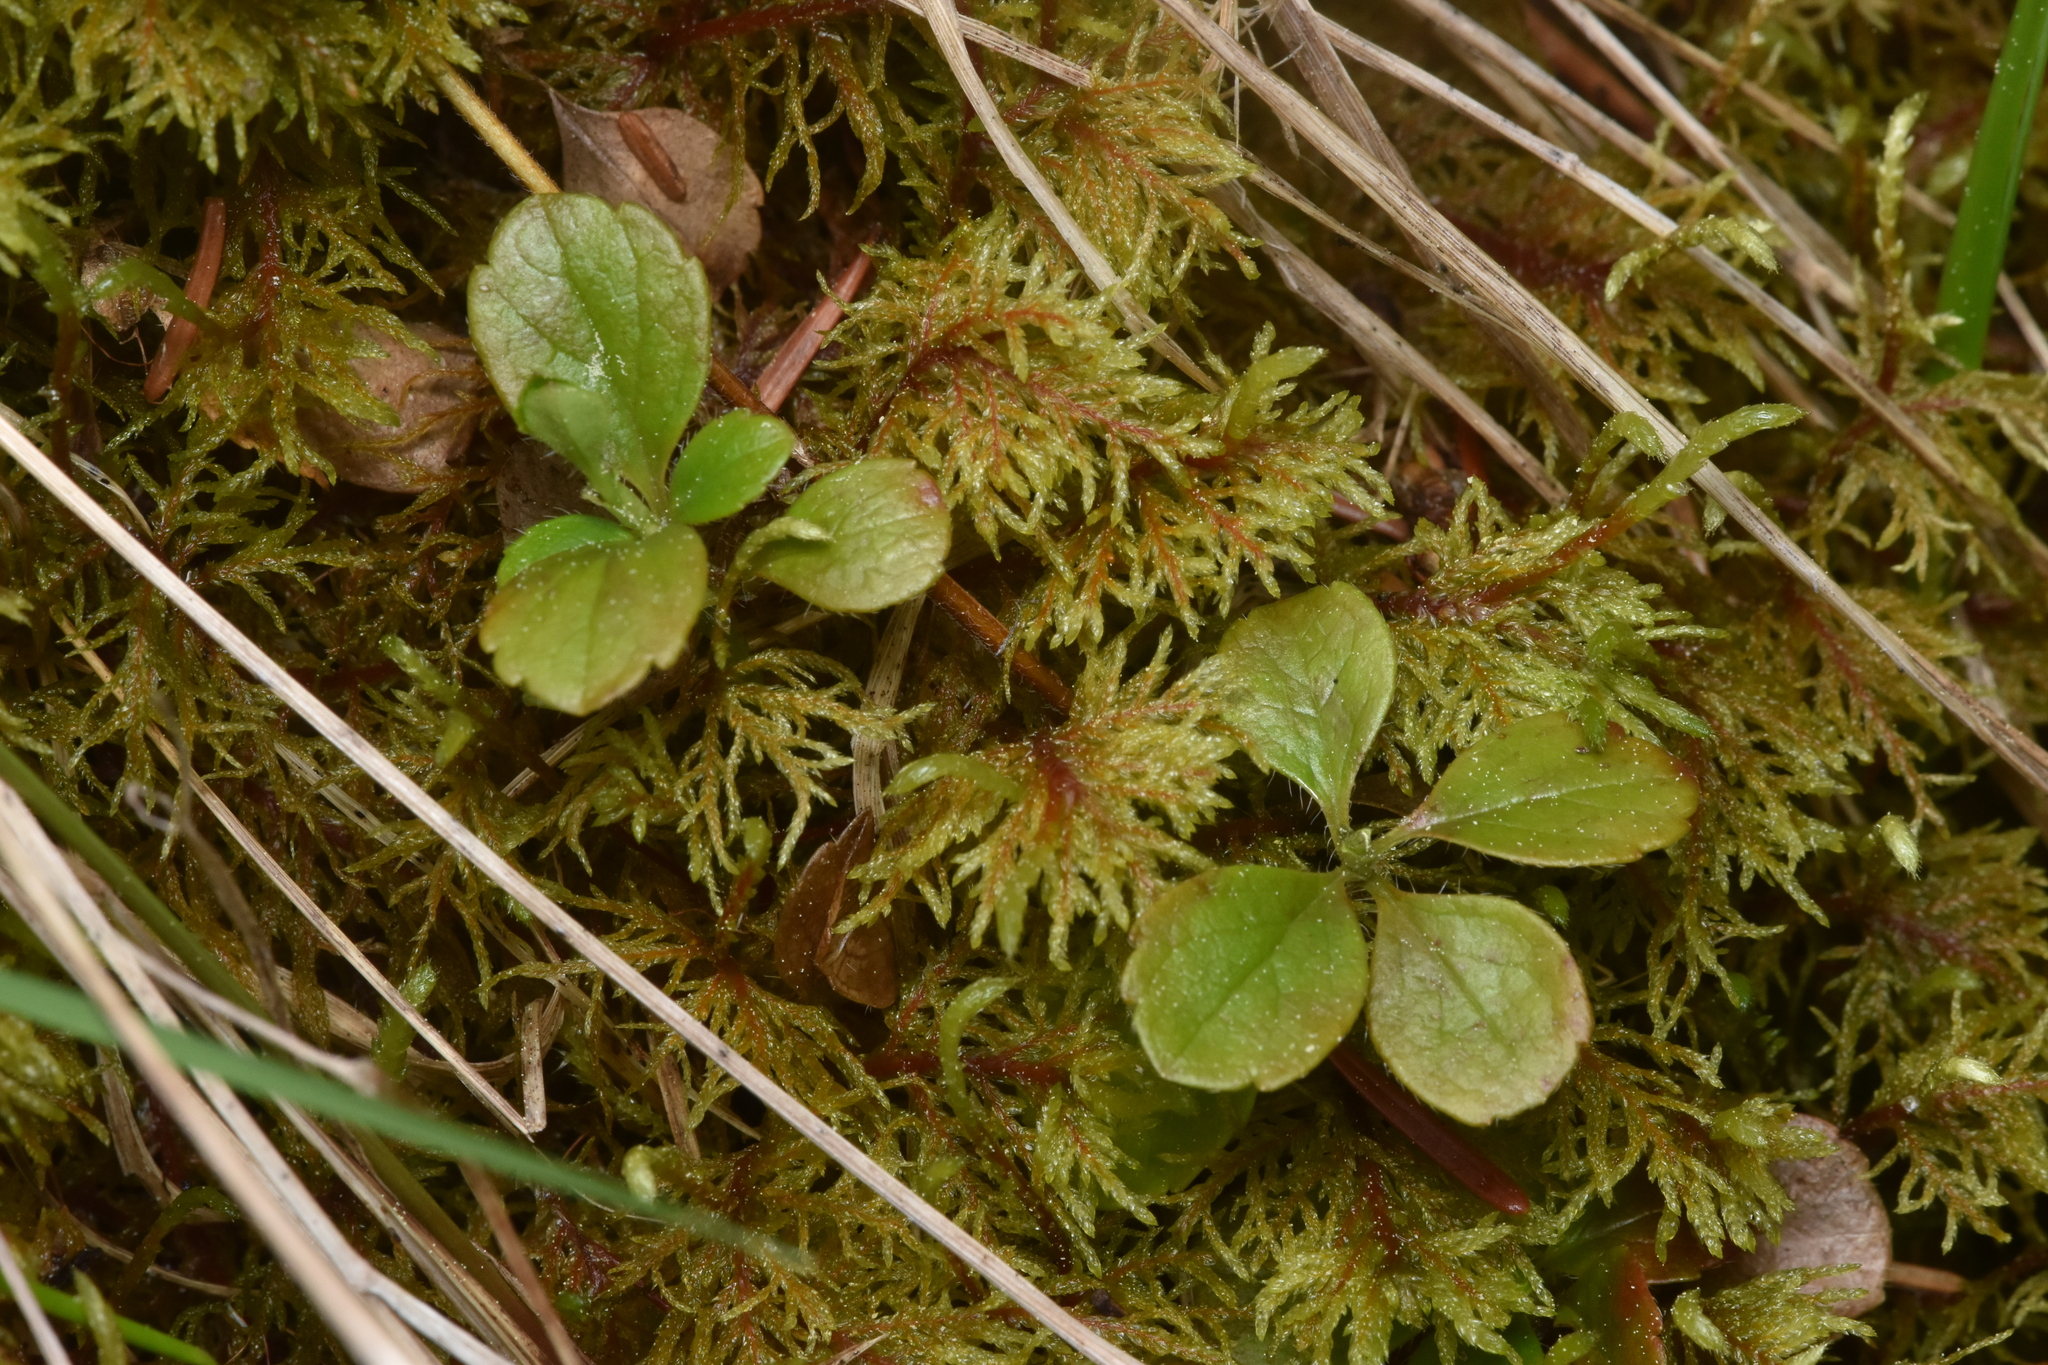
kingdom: Plantae
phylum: Tracheophyta
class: Magnoliopsida
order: Dipsacales
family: Caprifoliaceae
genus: Linnaea
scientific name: Linnaea borealis
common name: Twinflower
